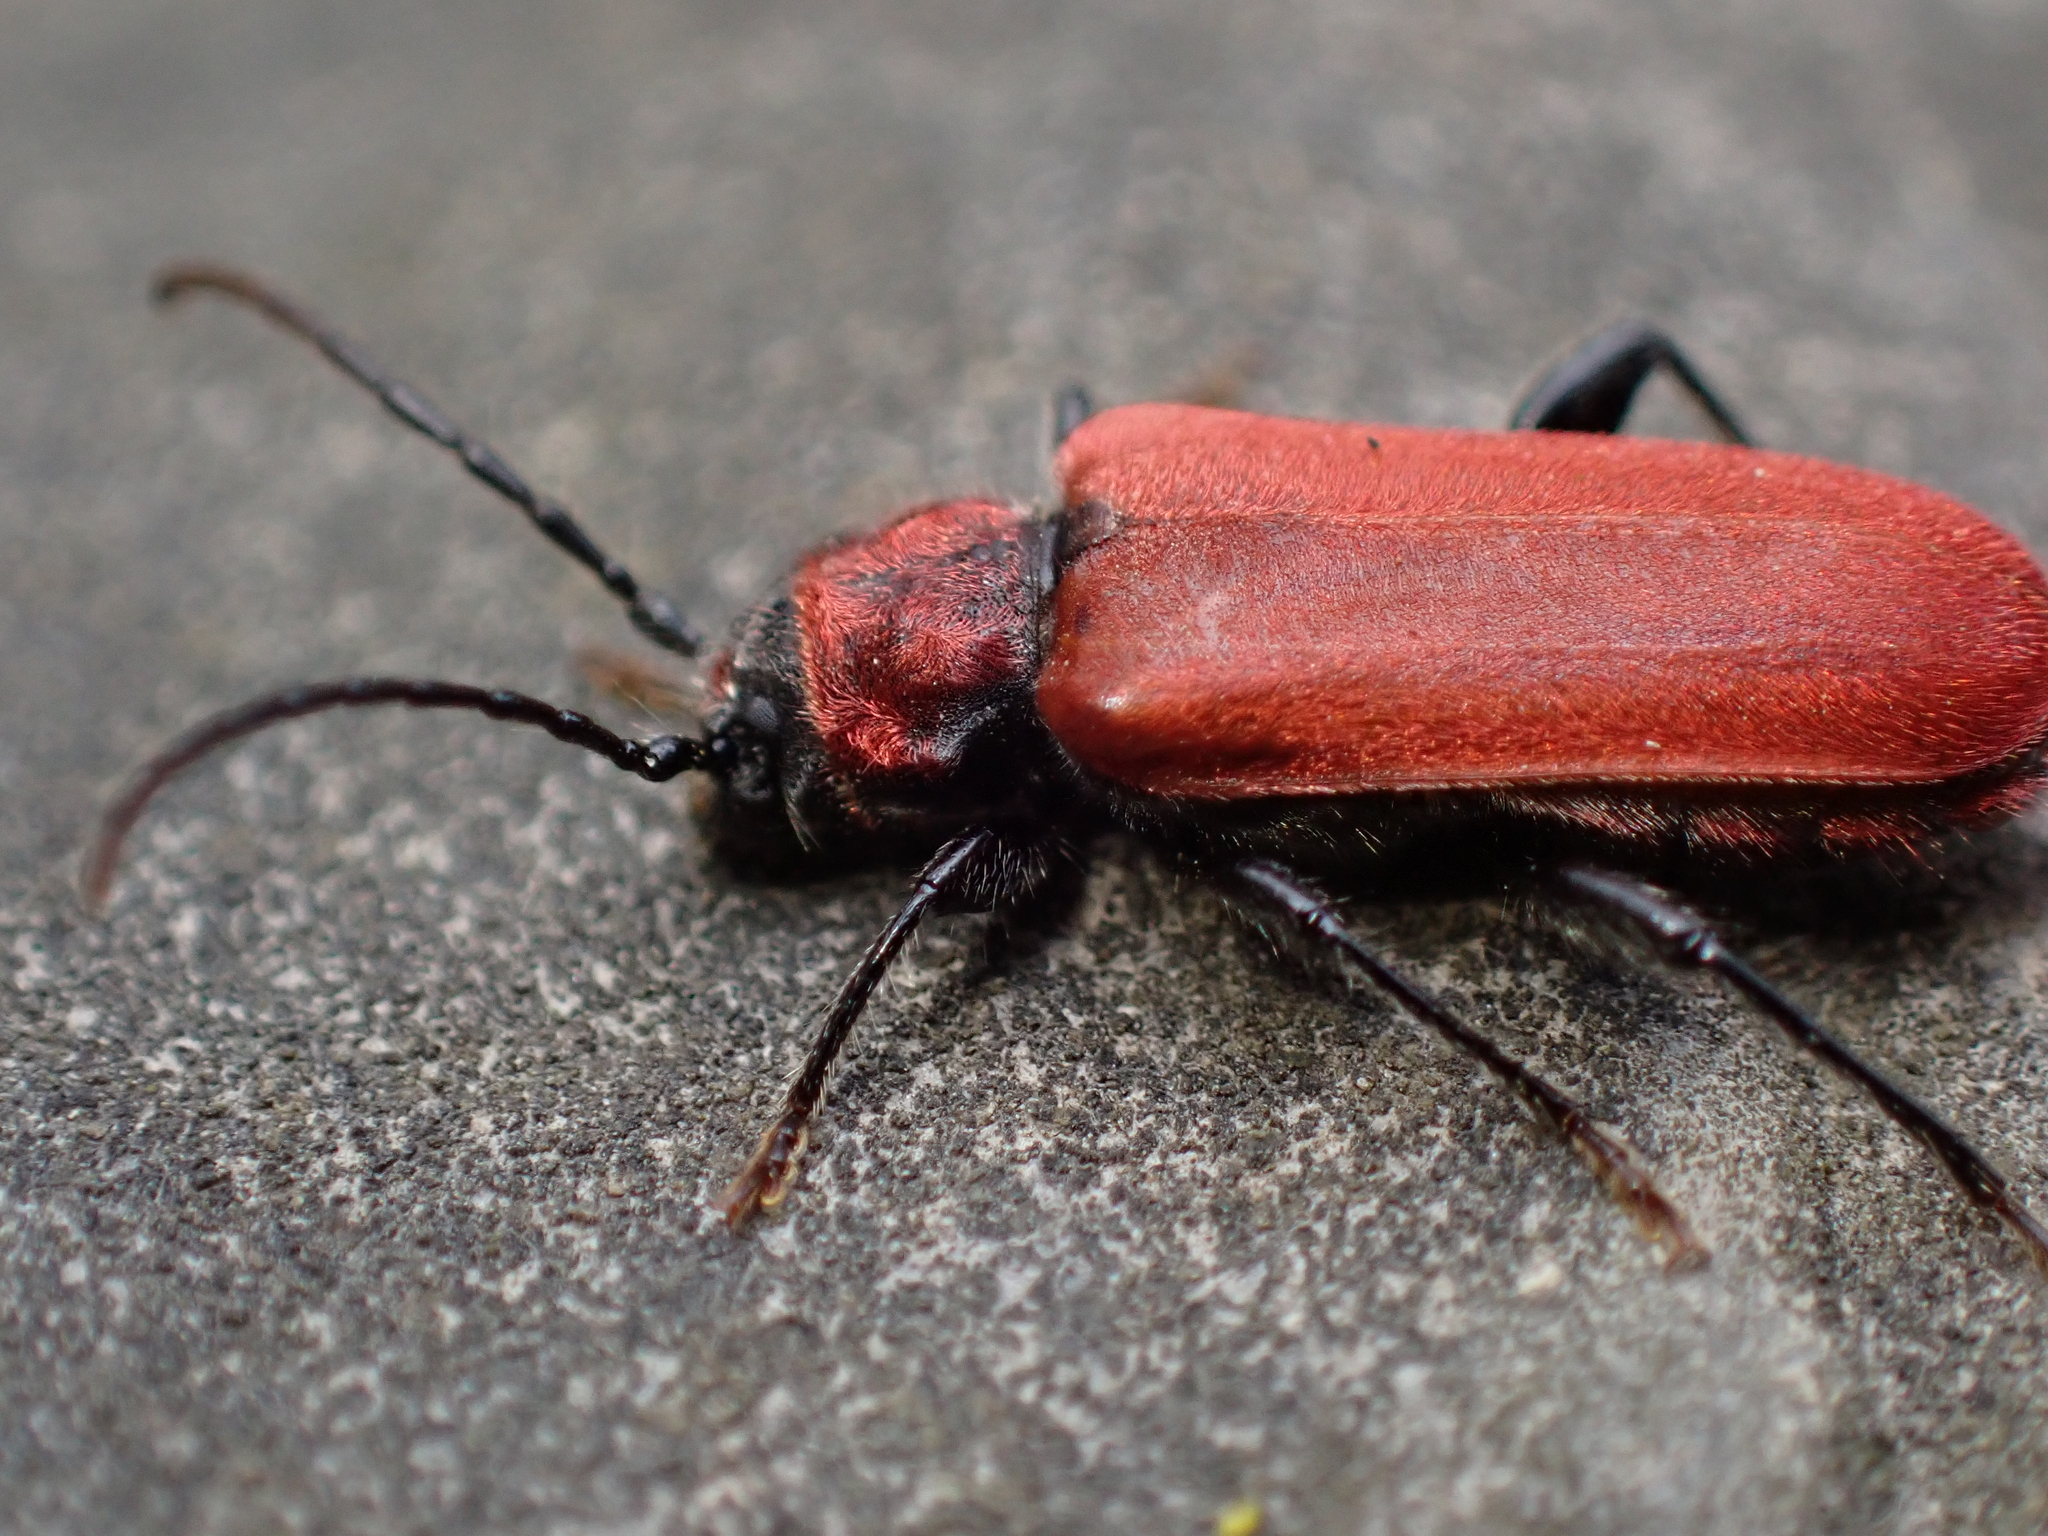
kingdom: Animalia
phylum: Arthropoda
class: Insecta
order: Coleoptera
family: Cerambycidae
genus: Pyrrhidium
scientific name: Pyrrhidium sanguineum
